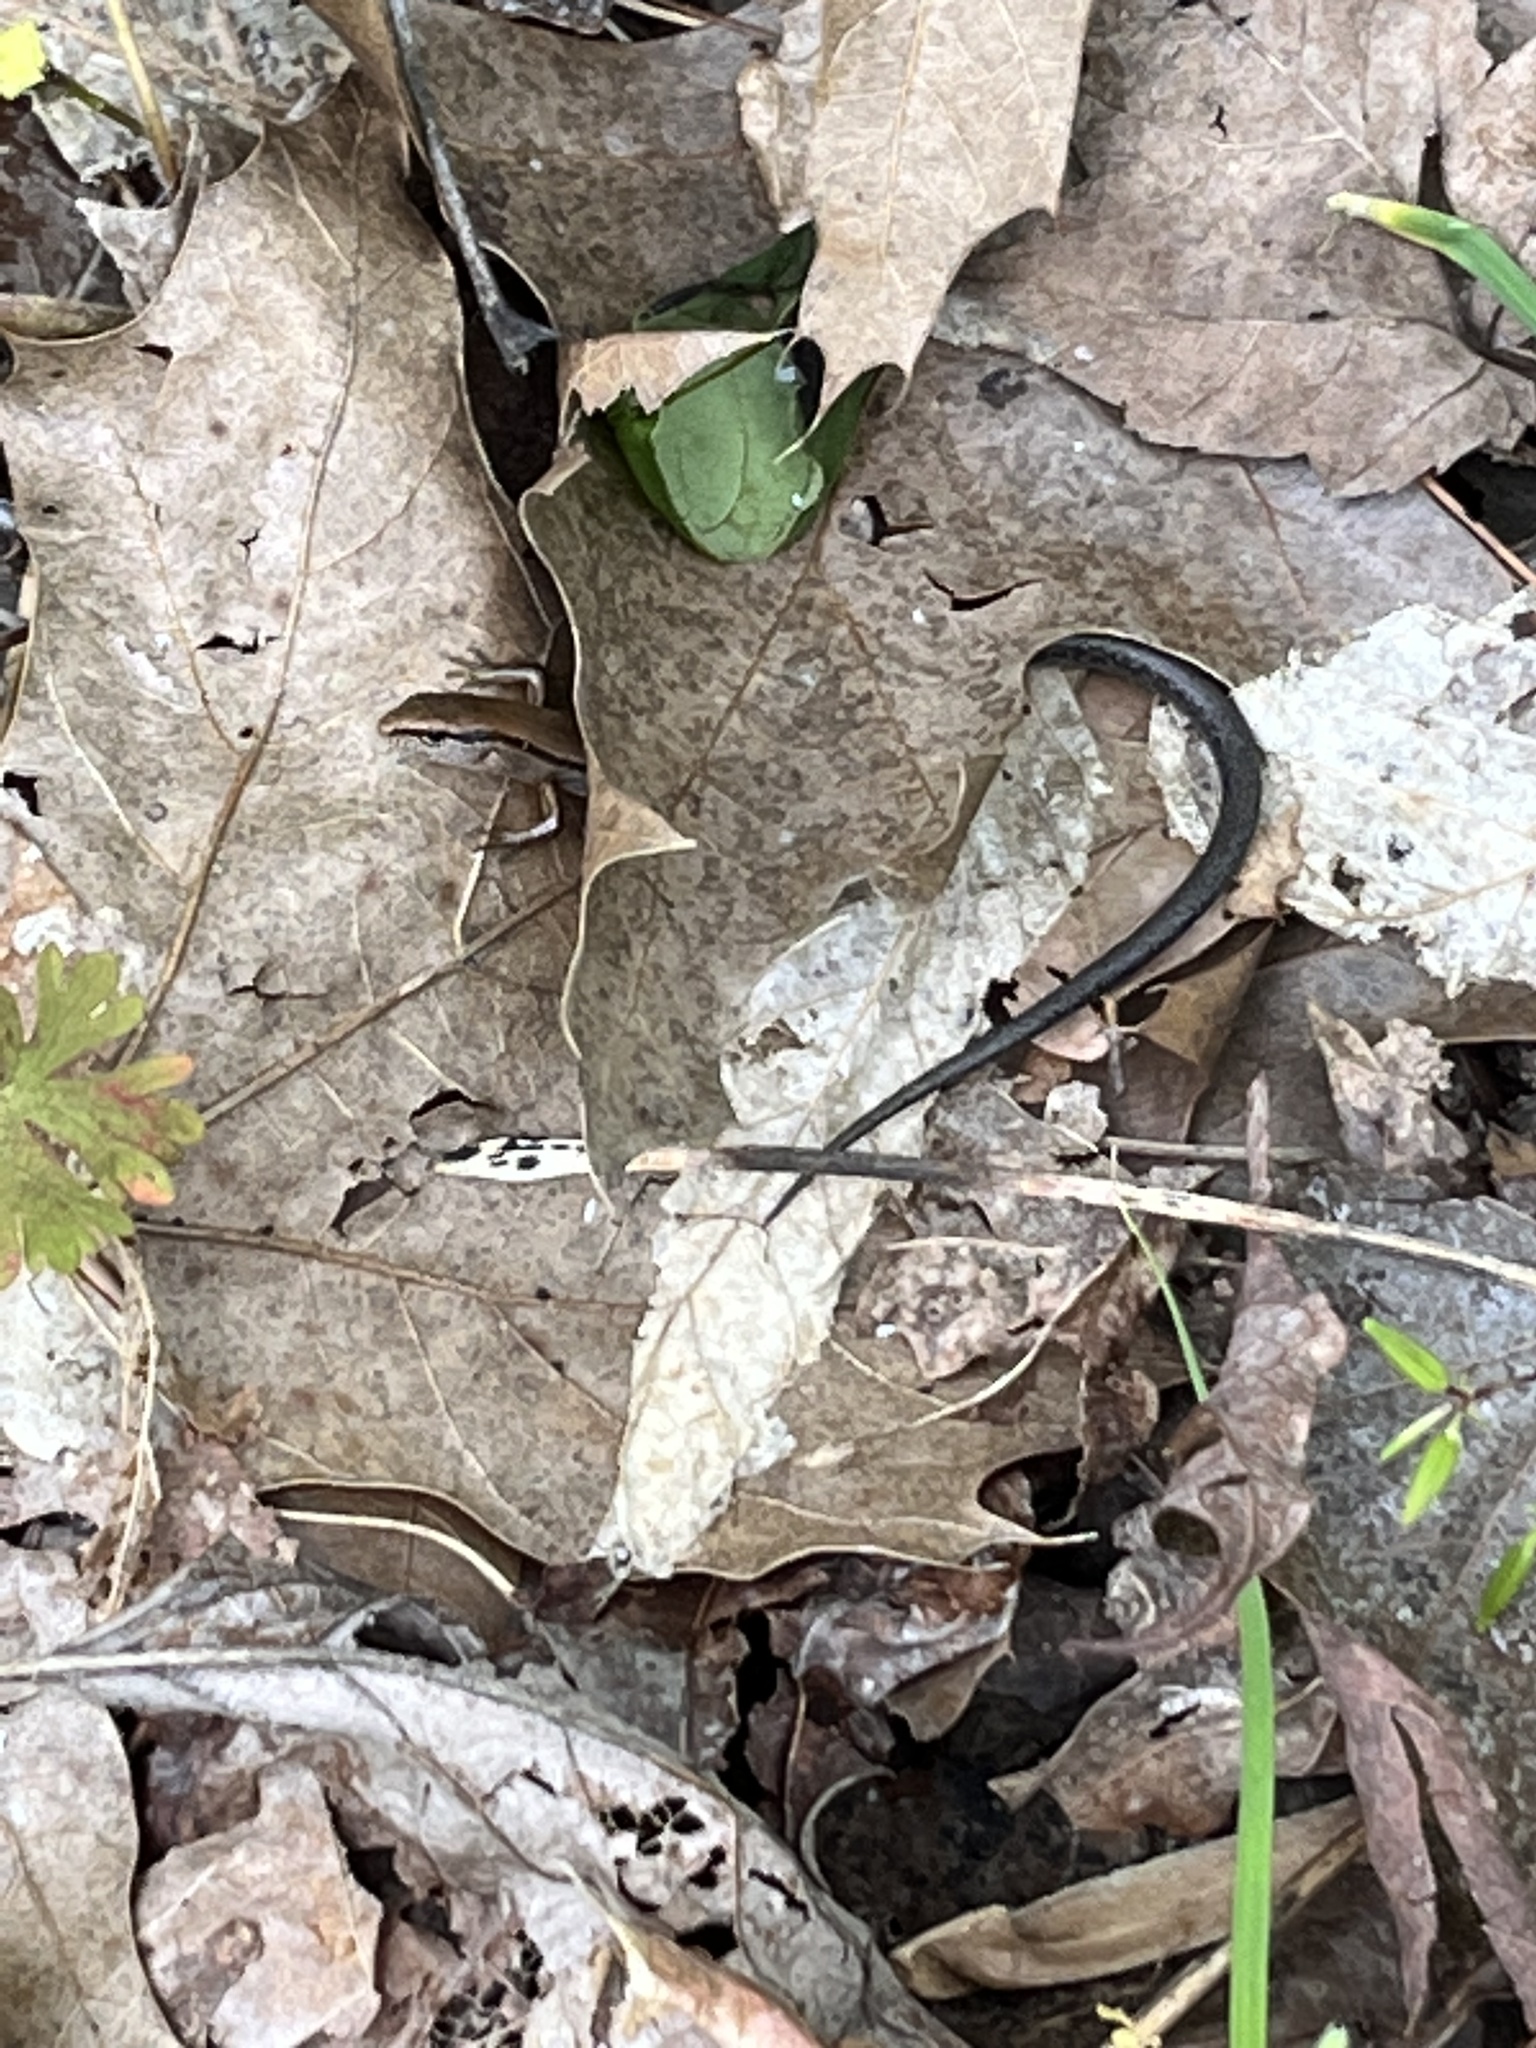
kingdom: Animalia
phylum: Chordata
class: Squamata
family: Scincidae
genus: Scincella
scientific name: Scincella lateralis
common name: Ground skink
